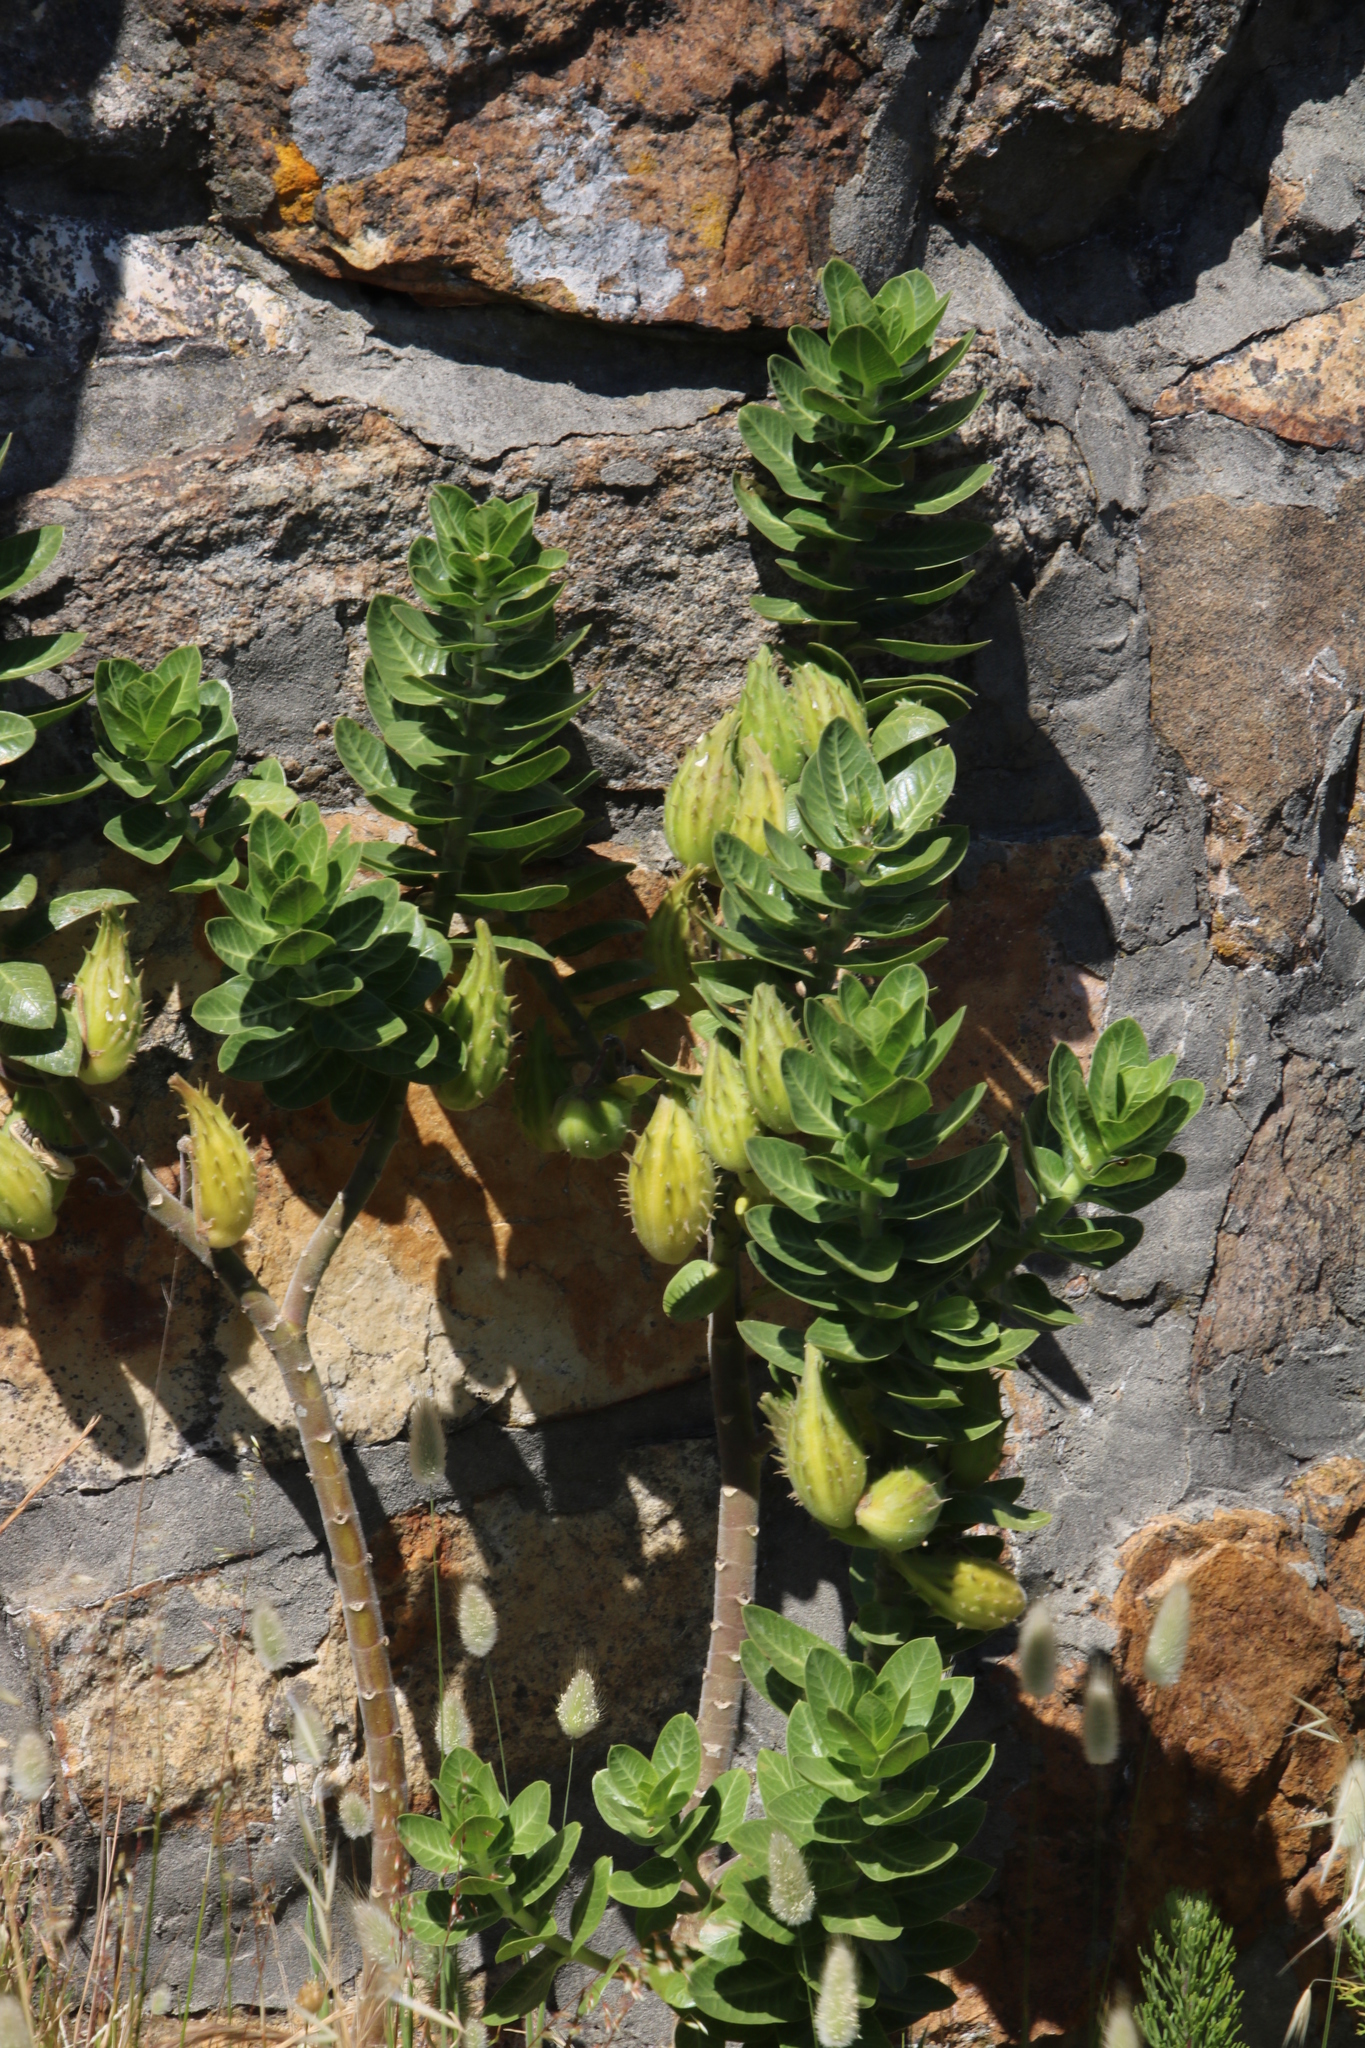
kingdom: Plantae
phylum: Tracheophyta
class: Magnoliopsida
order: Gentianales
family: Apocynaceae
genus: Gomphocarpus
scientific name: Gomphocarpus cancellatus
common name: Wild cotton
